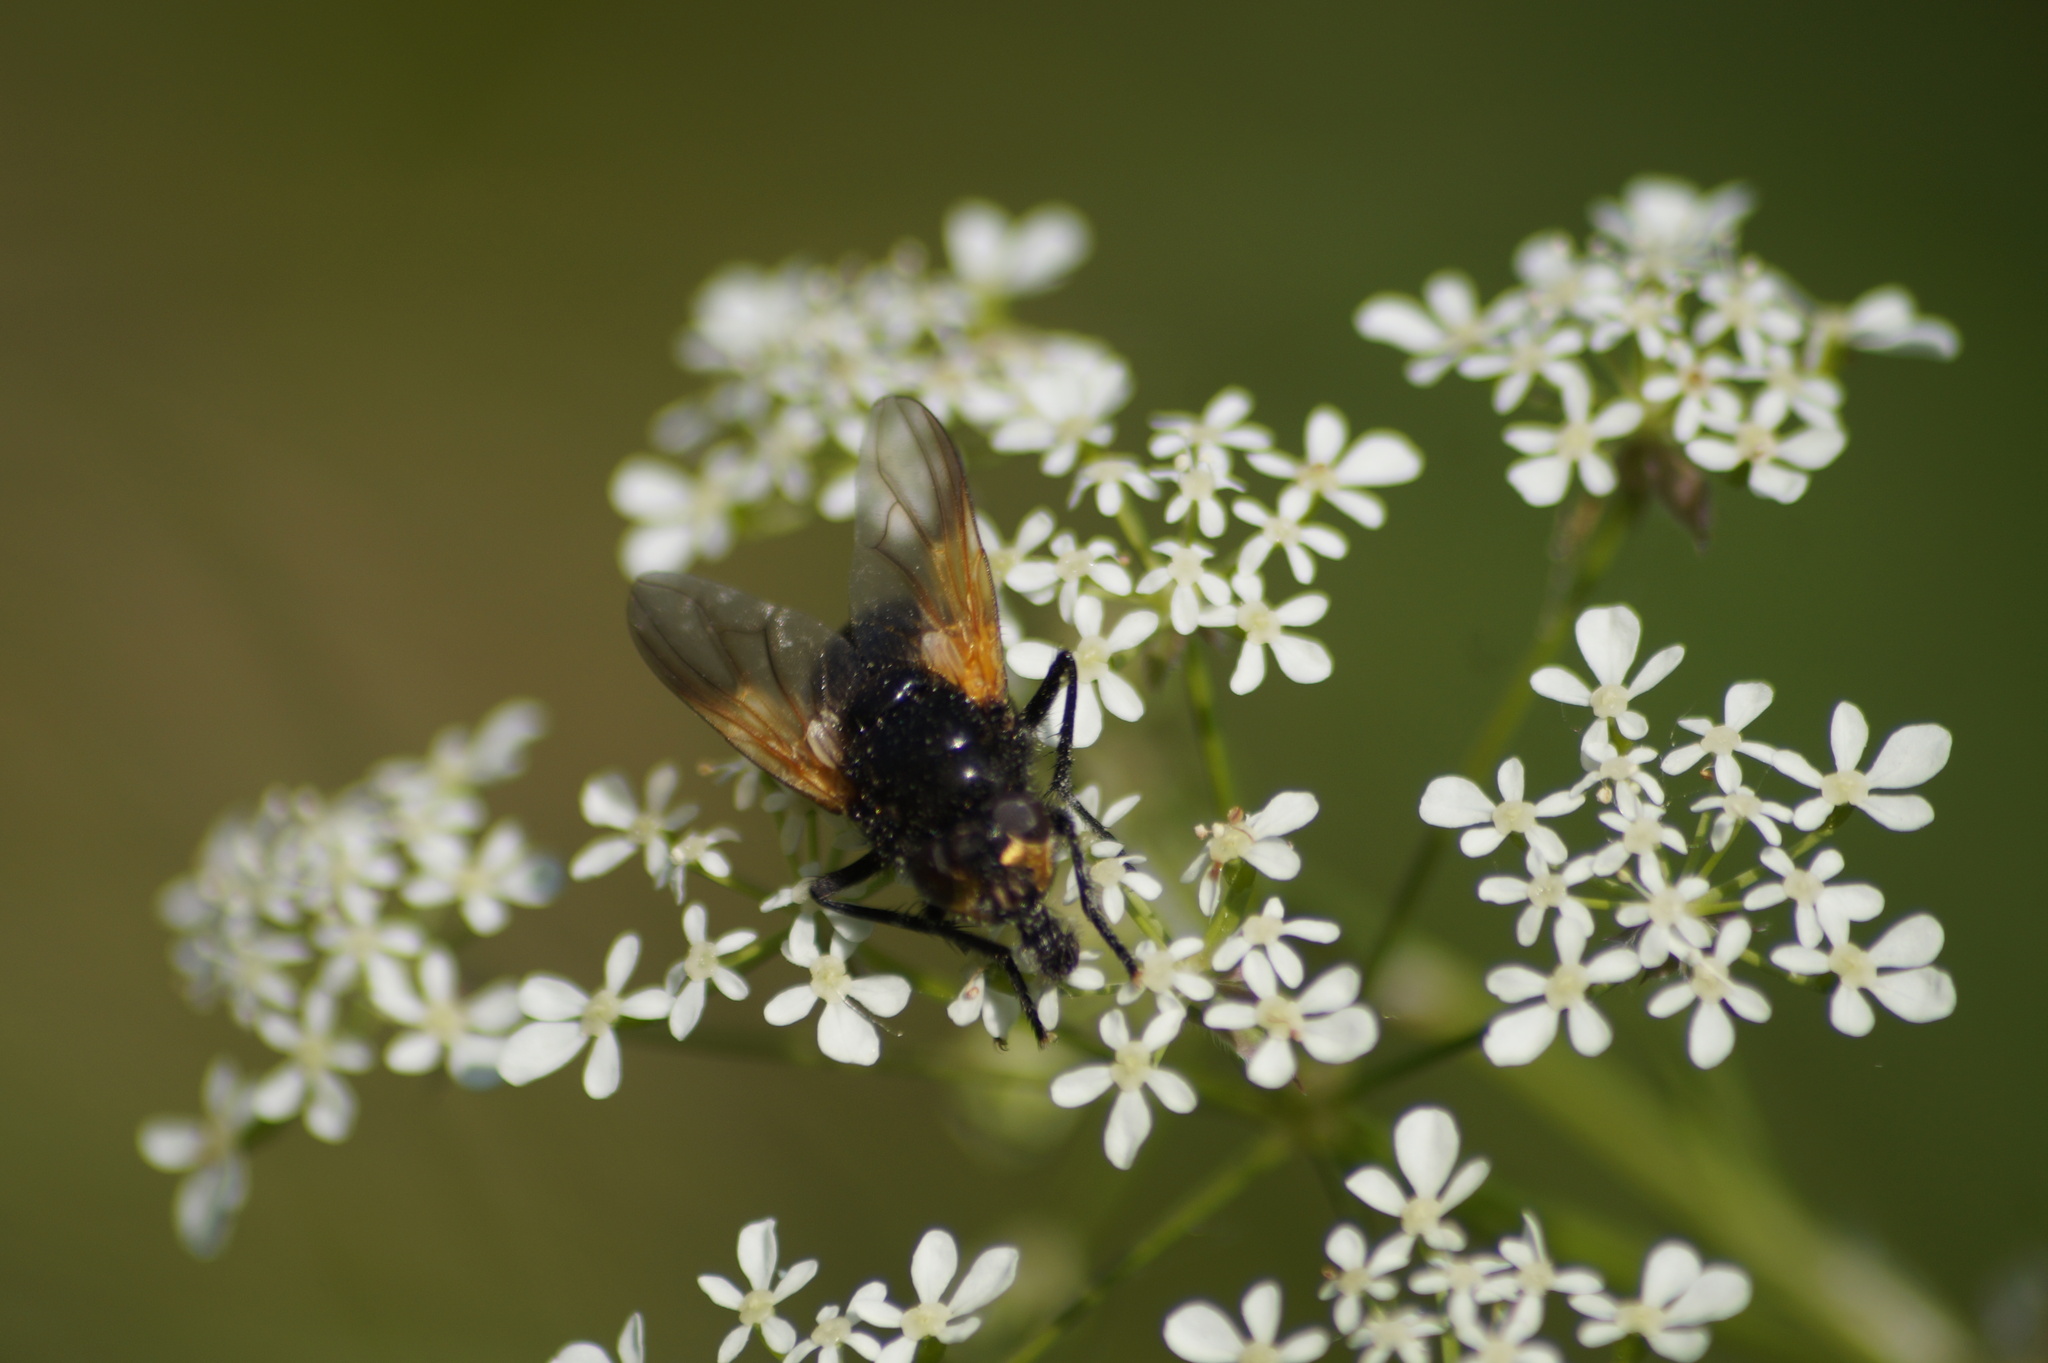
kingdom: Animalia
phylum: Arthropoda
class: Insecta
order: Diptera
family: Muscidae
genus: Mesembrina
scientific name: Mesembrina meridiana
